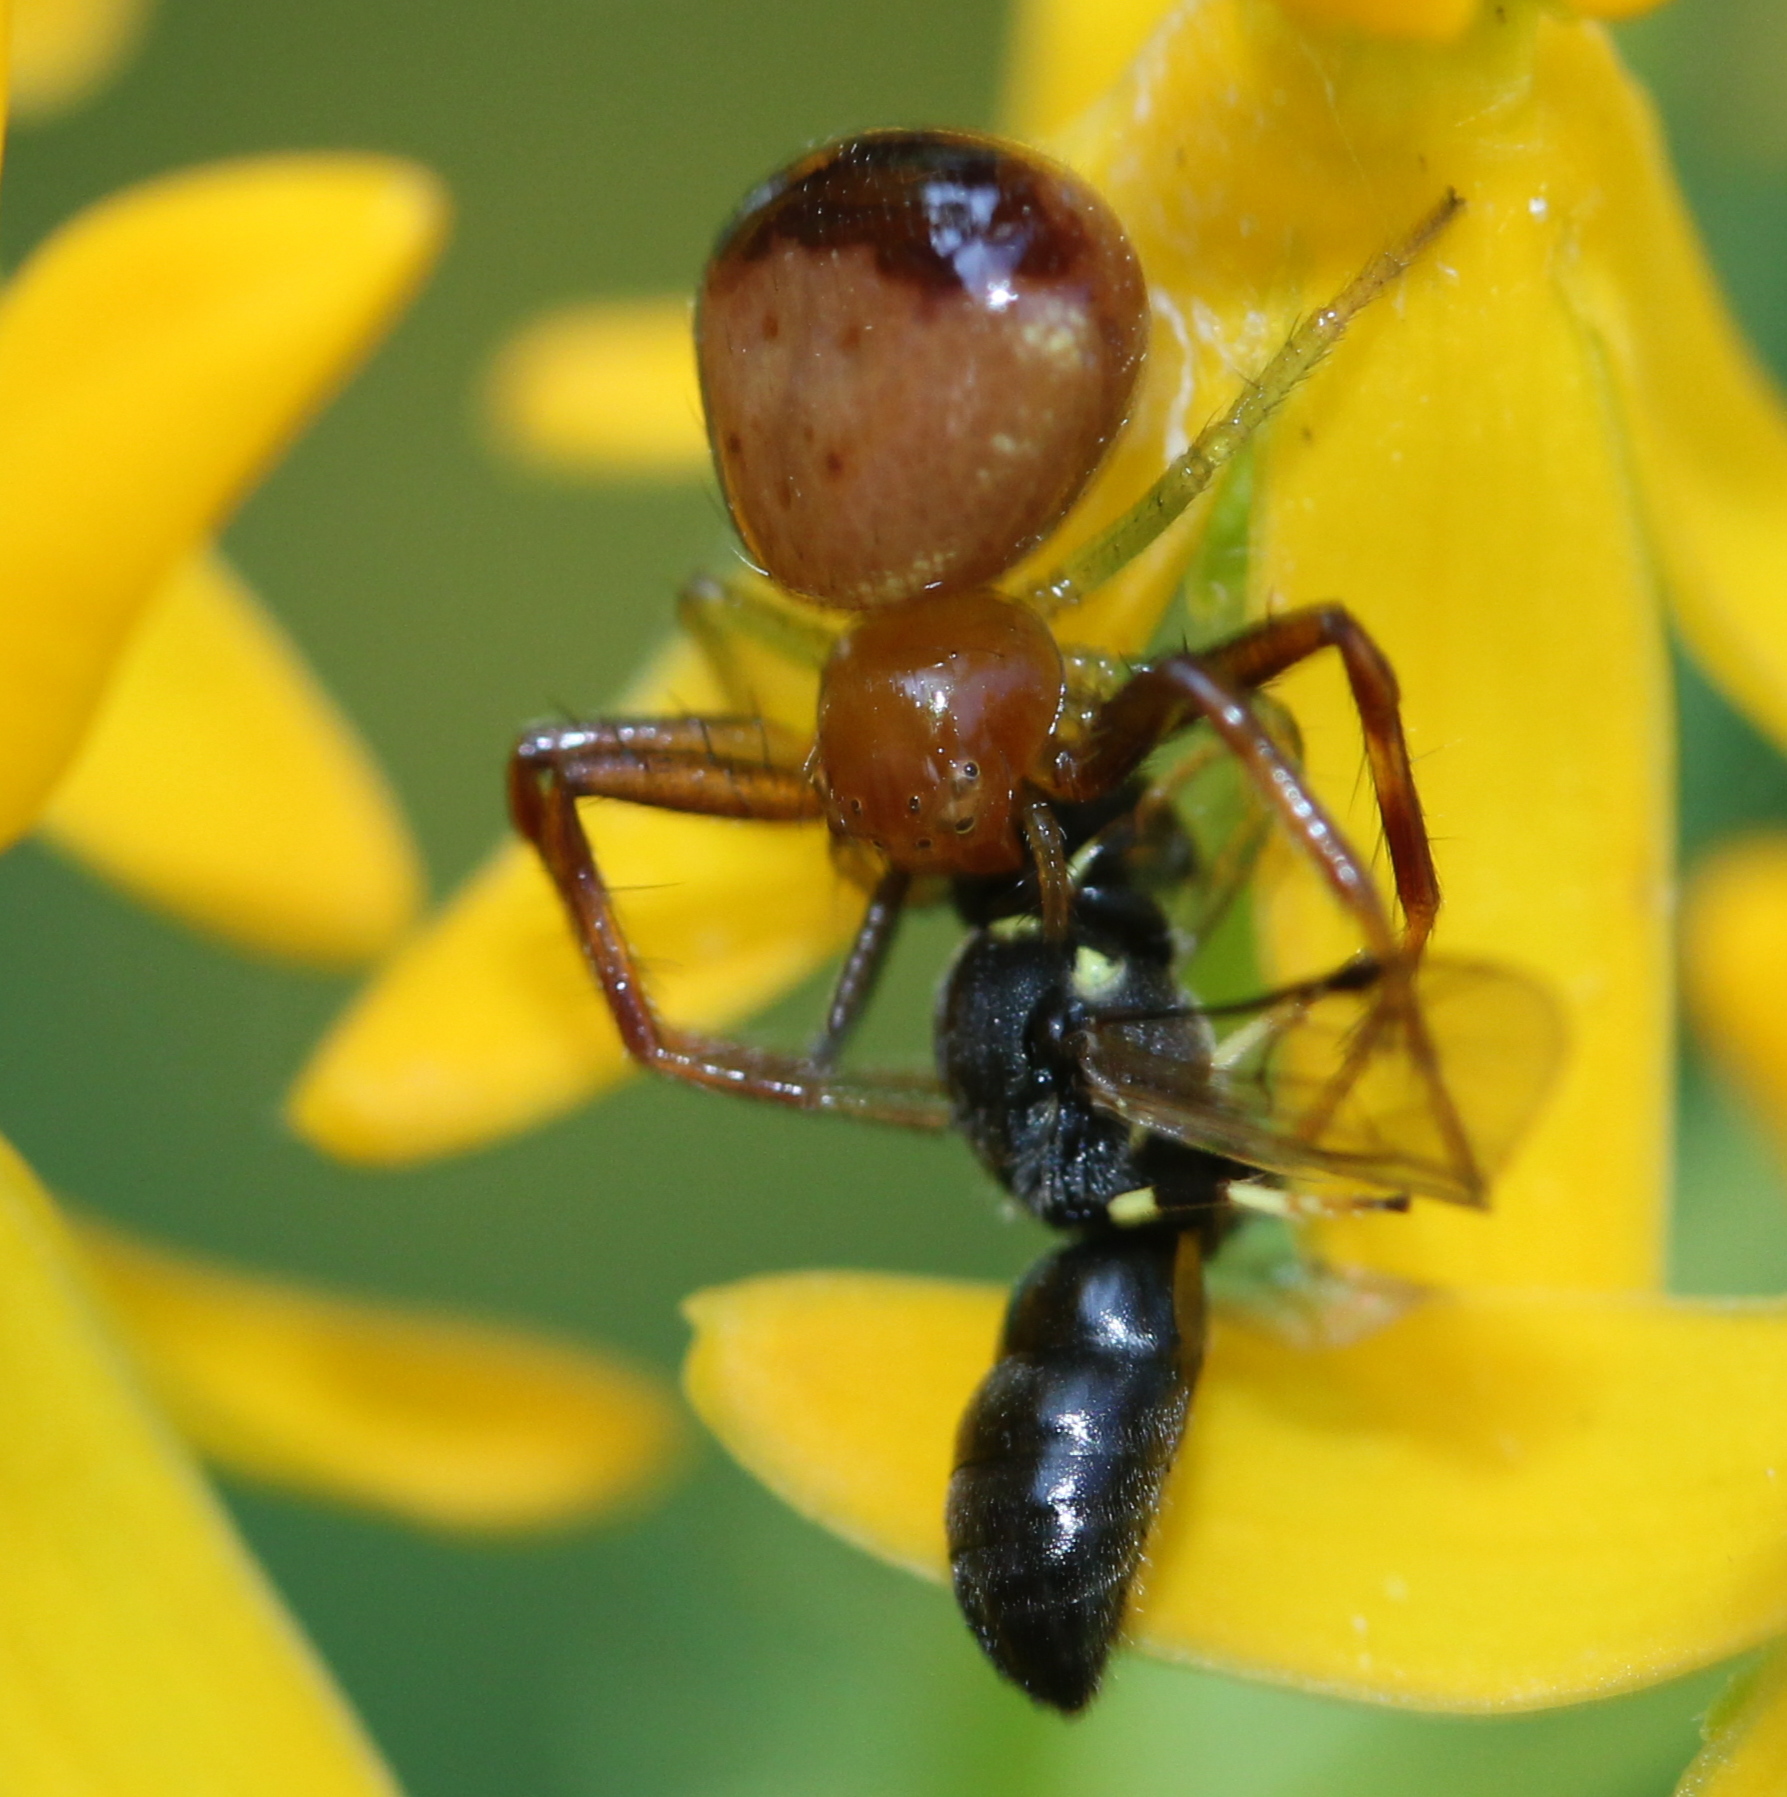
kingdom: Animalia
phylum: Arthropoda
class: Arachnida
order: Araneae
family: Thomisidae
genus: Synema
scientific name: Synema parvulum
